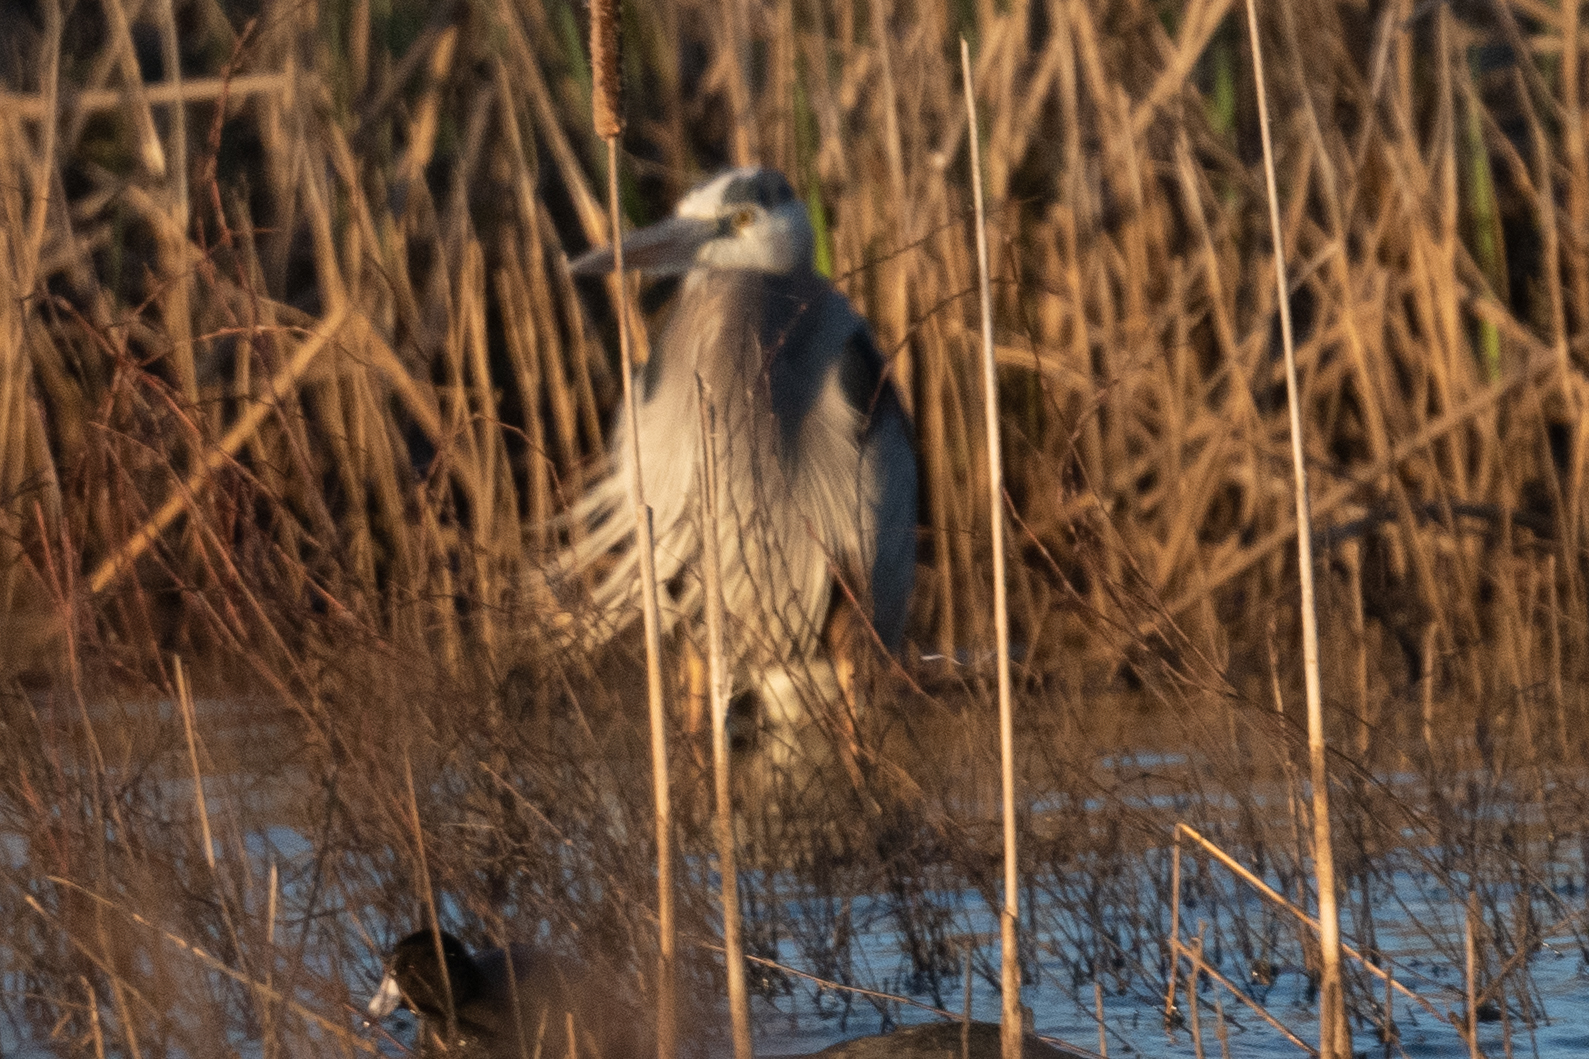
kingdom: Animalia
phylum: Chordata
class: Aves
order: Pelecaniformes
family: Ardeidae
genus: Ardea
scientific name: Ardea herodias
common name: Great blue heron
